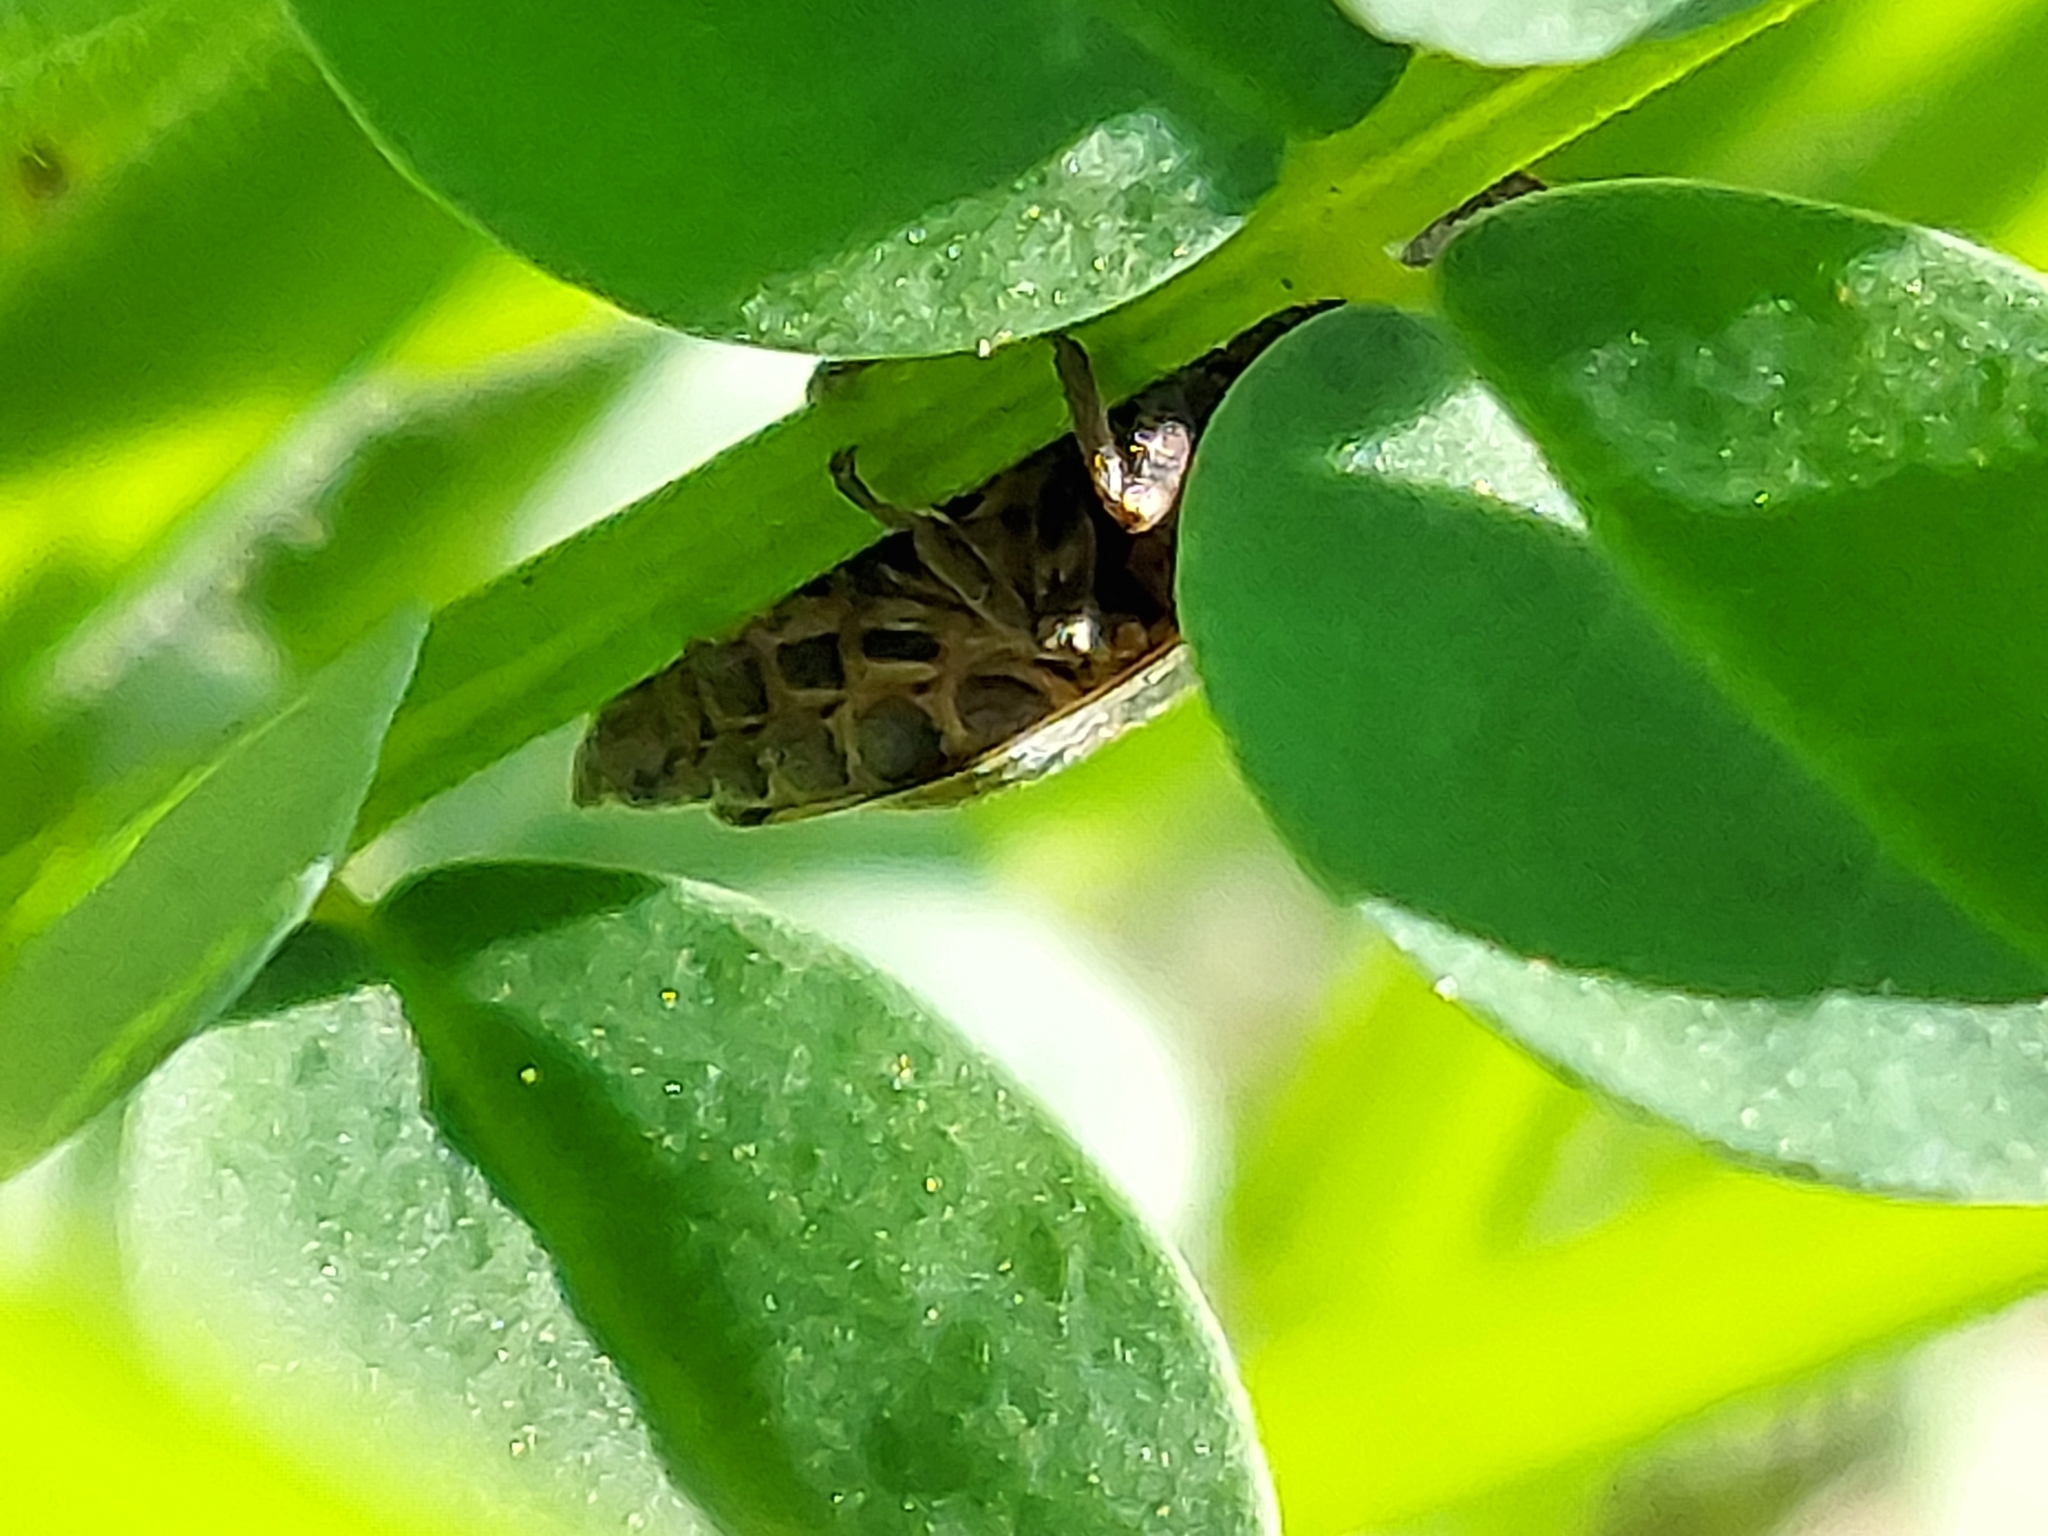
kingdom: Animalia
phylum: Arthropoda
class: Insecta
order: Hemiptera
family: Aphrophoridae
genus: Lepyronia
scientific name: Lepyronia quadrangularis
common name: Diamond-backed spittlebug
